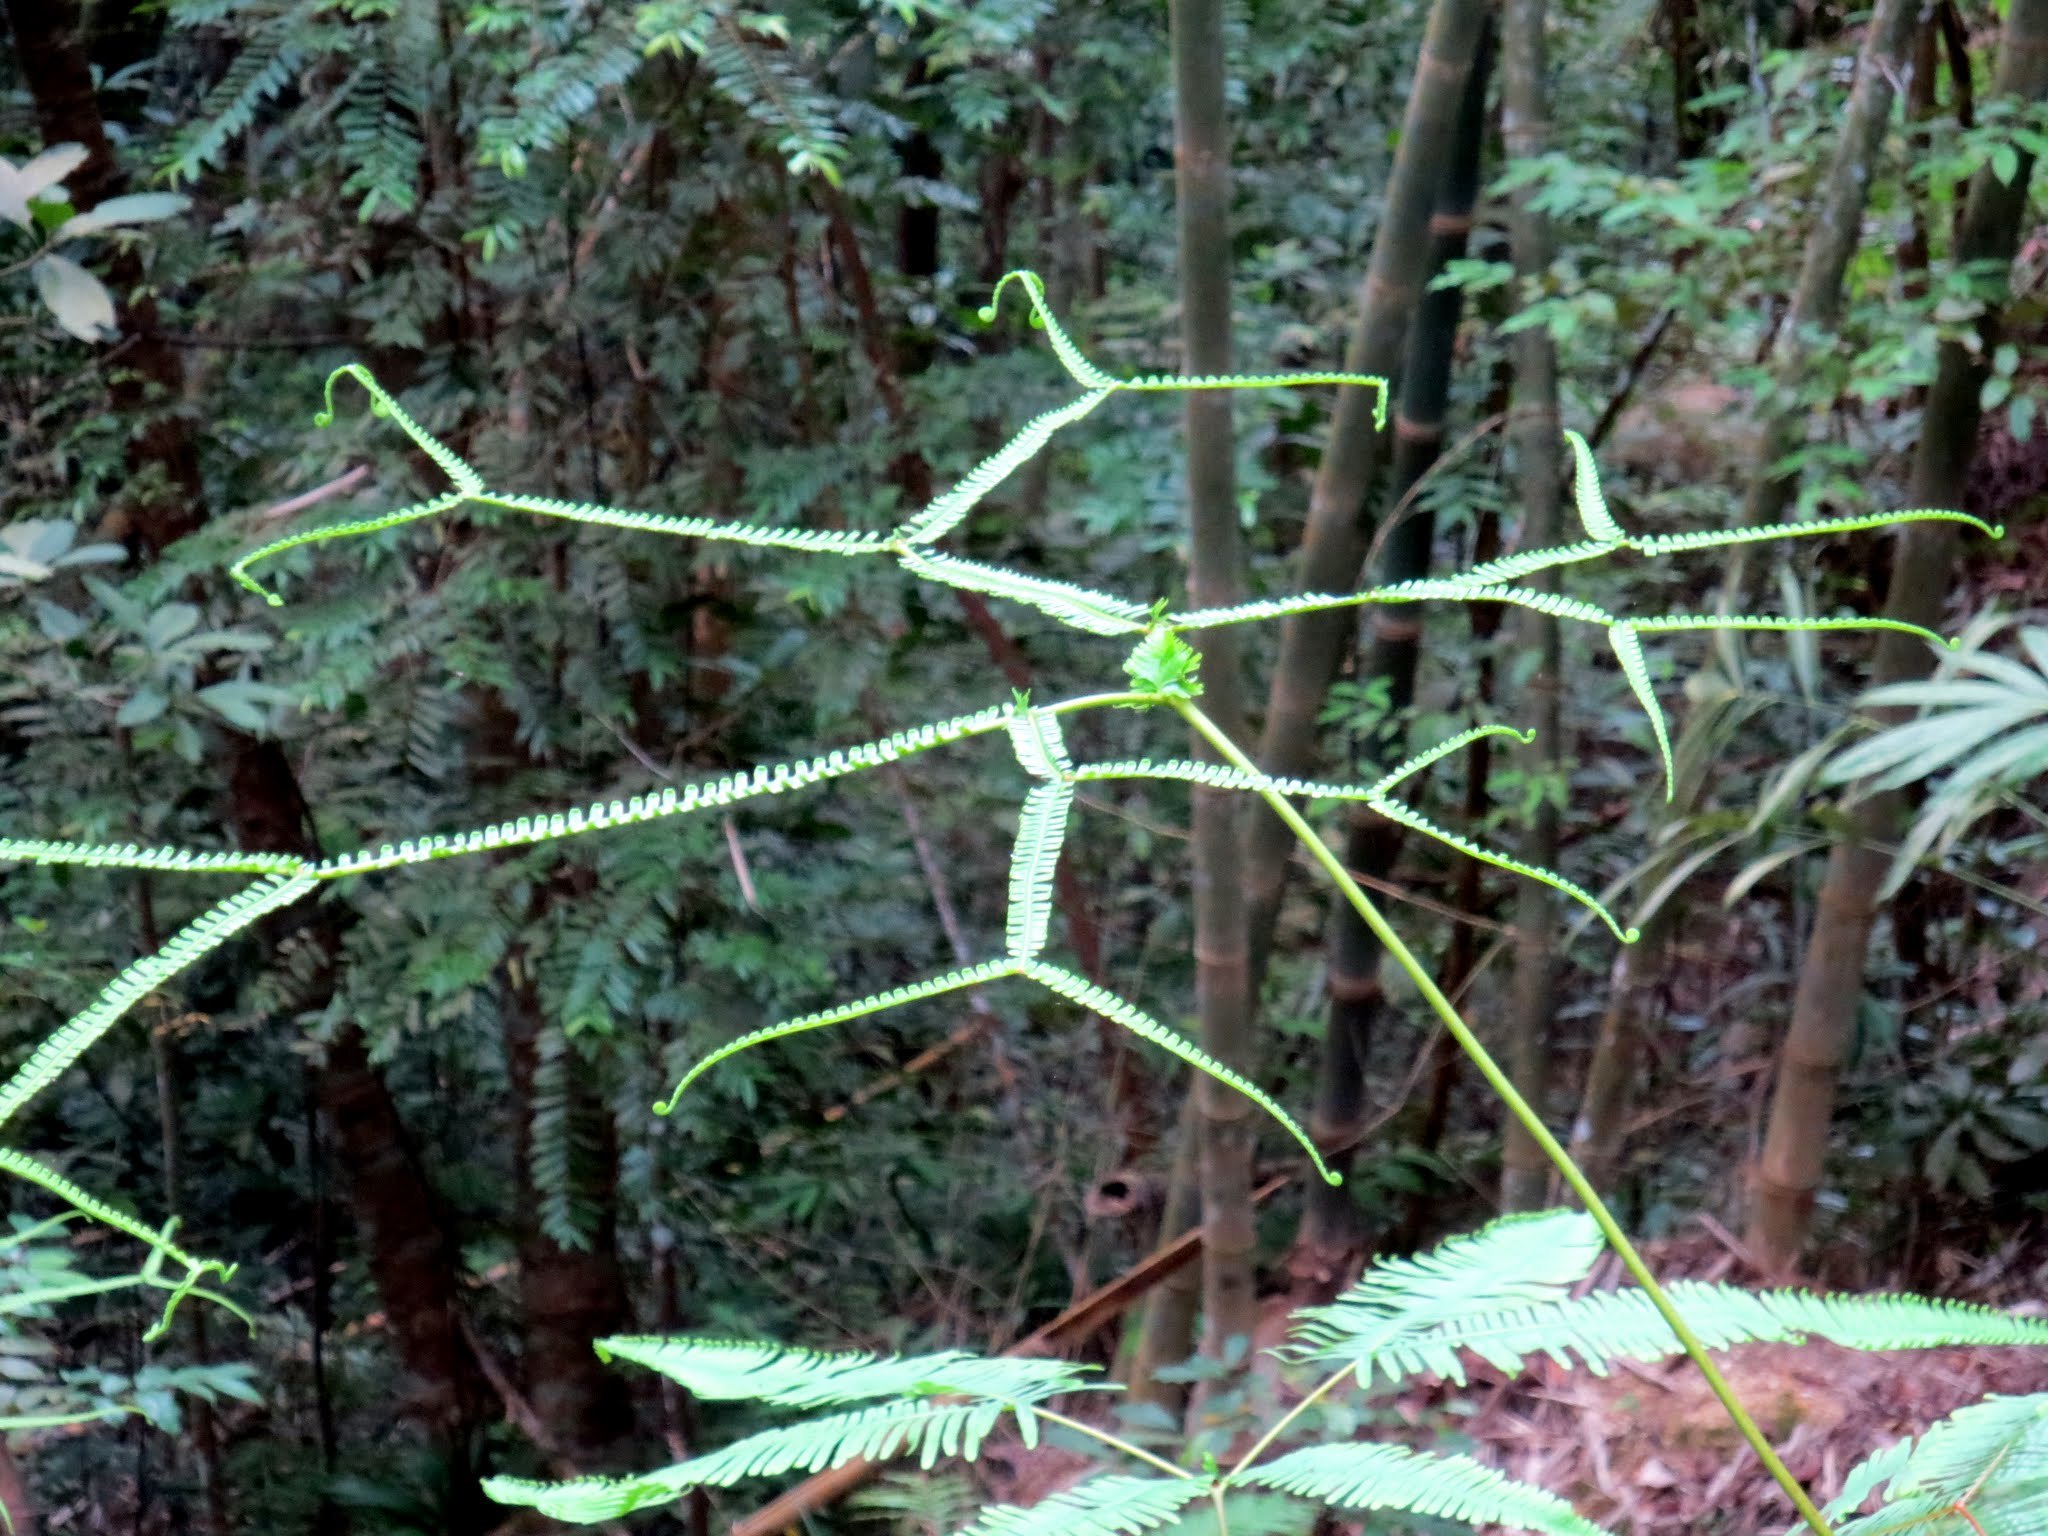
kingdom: Plantae
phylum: Tracheophyta
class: Polypodiopsida
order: Gleicheniales
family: Gleicheniaceae
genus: Sticherus
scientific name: Sticherus truncatus
